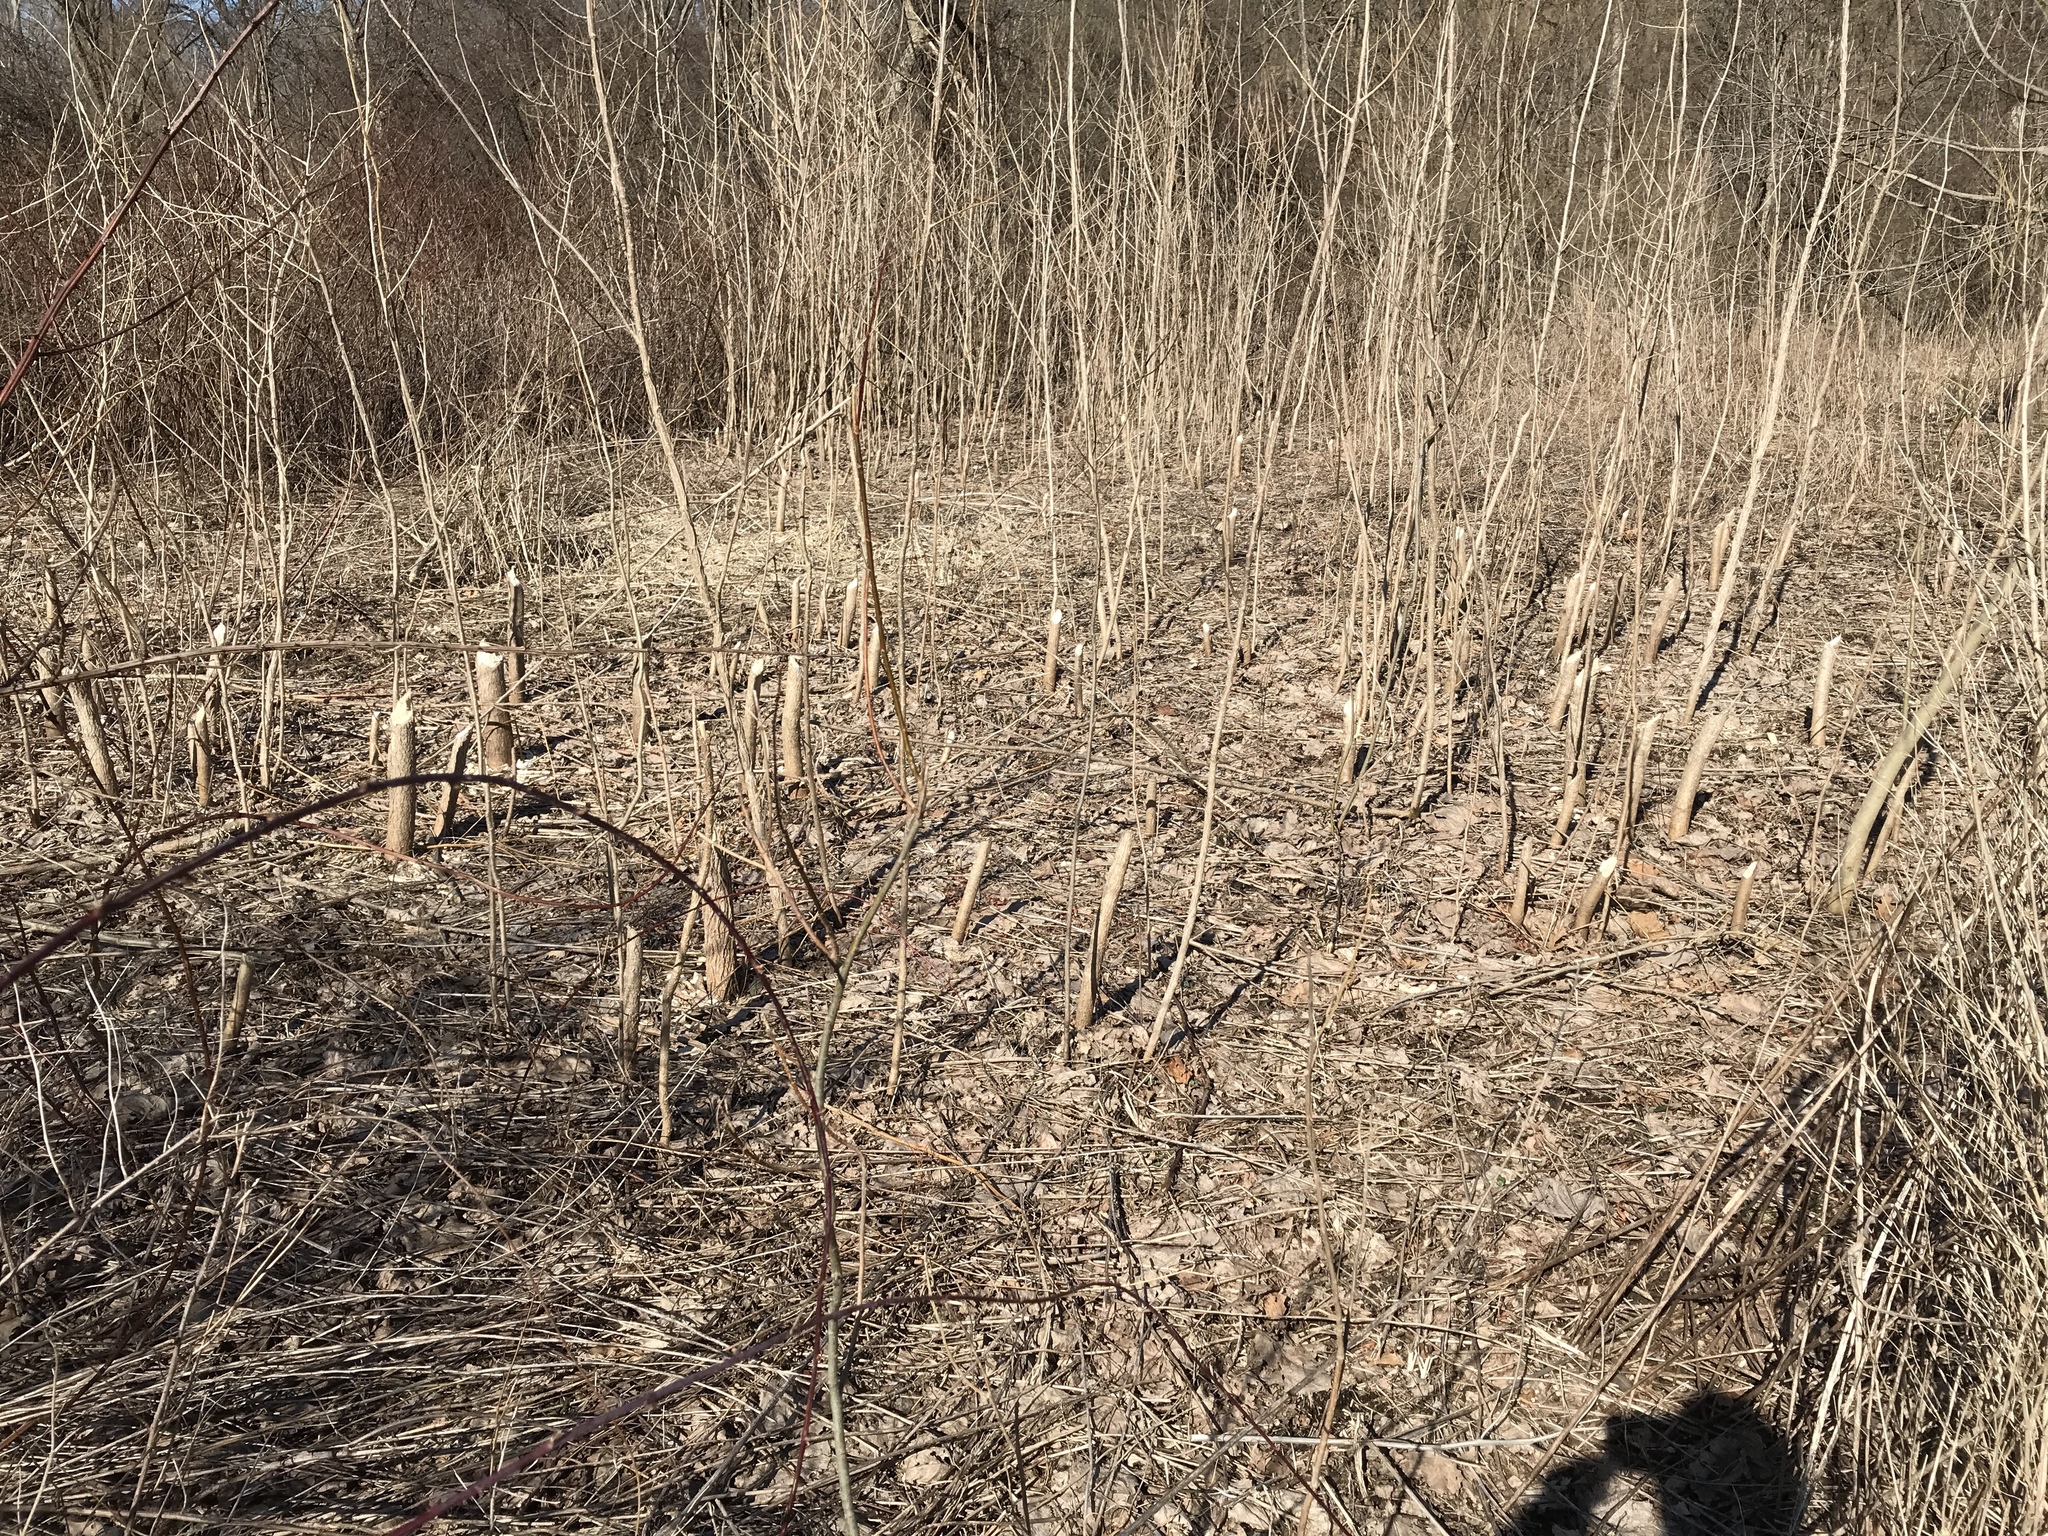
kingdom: Animalia
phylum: Chordata
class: Mammalia
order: Rodentia
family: Castoridae
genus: Castor
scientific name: Castor canadensis
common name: American beaver
